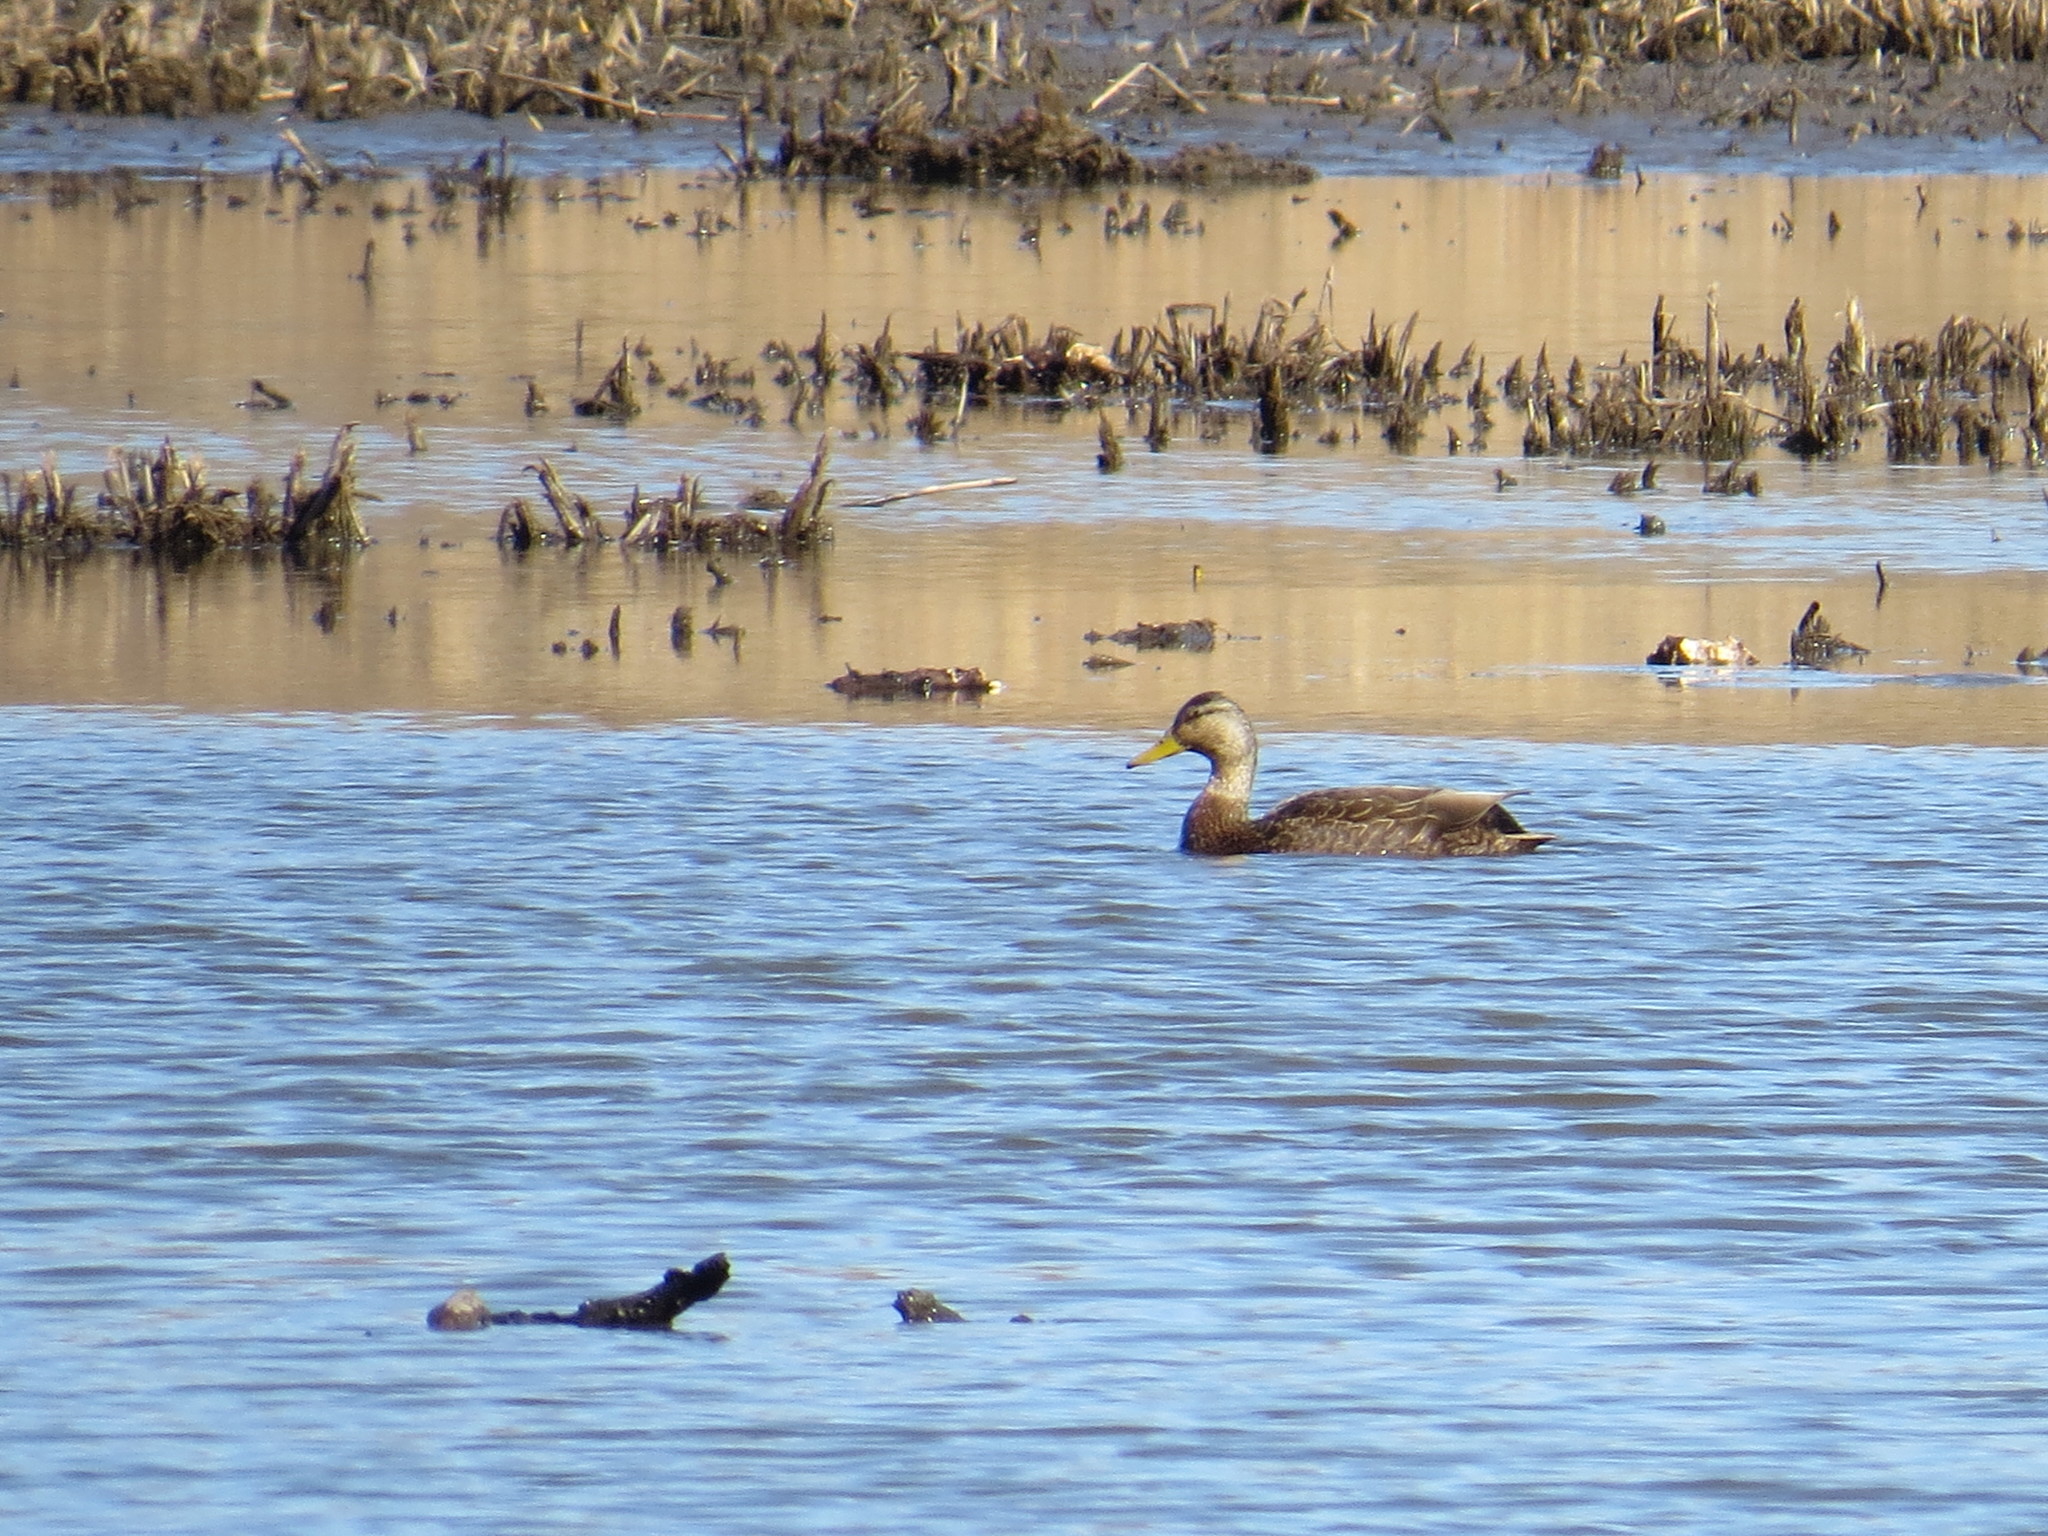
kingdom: Animalia
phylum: Chordata
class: Aves
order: Anseriformes
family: Anatidae
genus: Anas
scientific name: Anas rubripes
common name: American black duck
